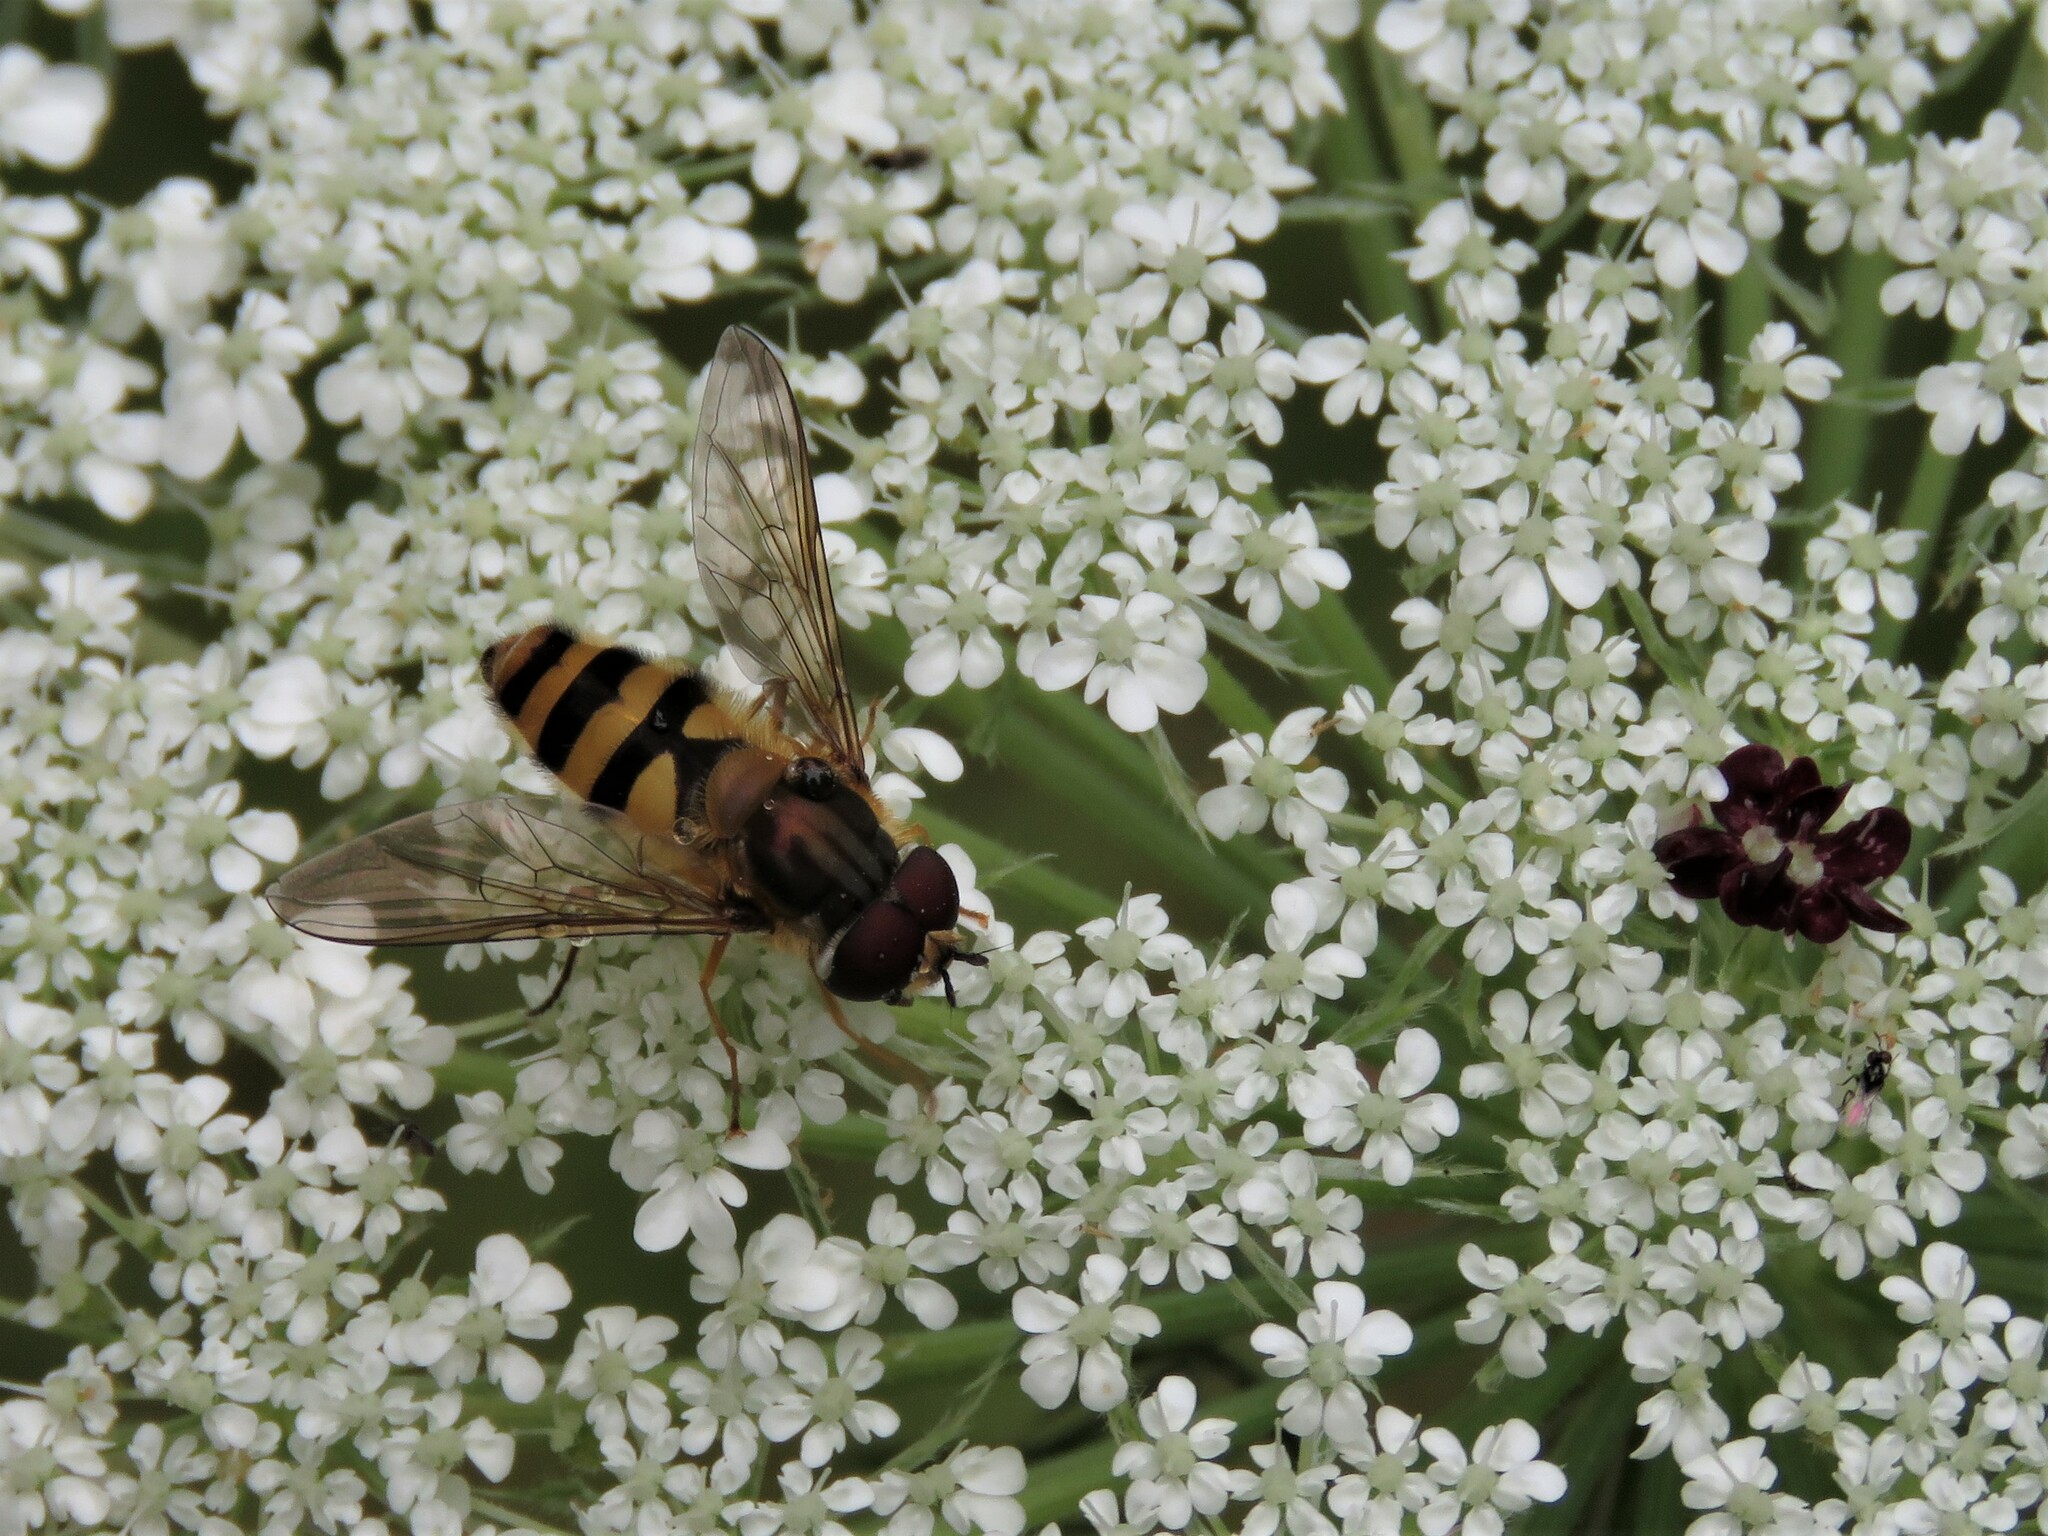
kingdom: Animalia
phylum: Arthropoda
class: Insecta
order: Diptera
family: Syrphidae
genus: Epistrophe
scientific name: Epistrophe grossulariae
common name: Black-horned smoothtail
